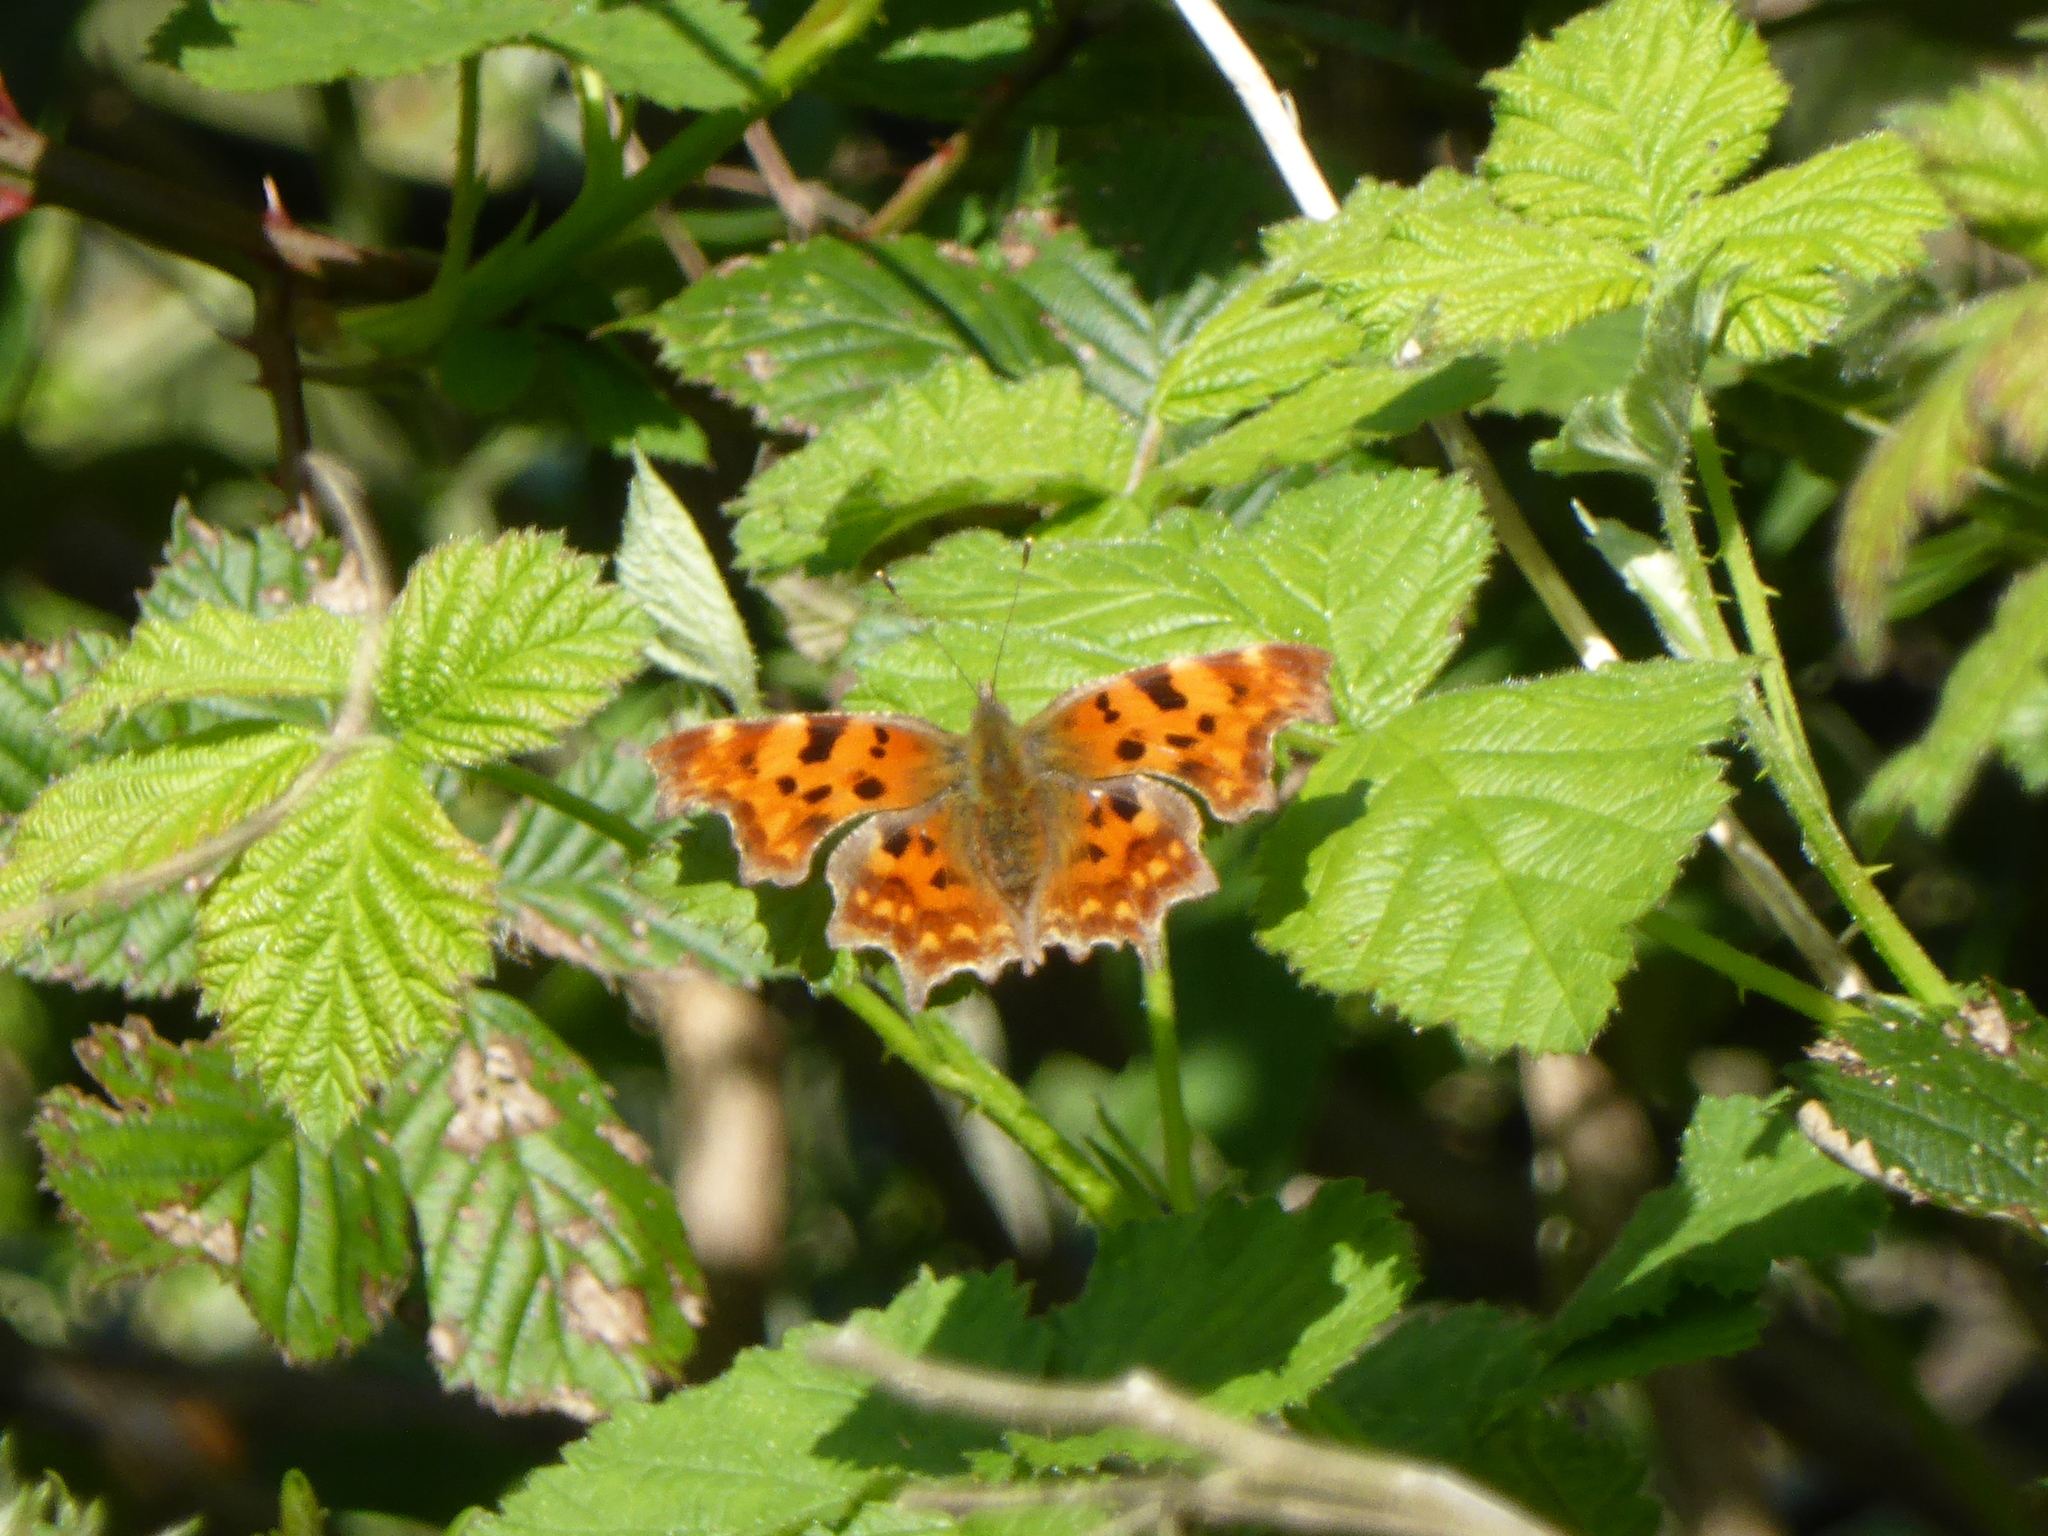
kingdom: Animalia
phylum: Arthropoda
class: Insecta
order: Lepidoptera
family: Nymphalidae
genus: Polygonia
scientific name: Polygonia c-album
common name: Comma
